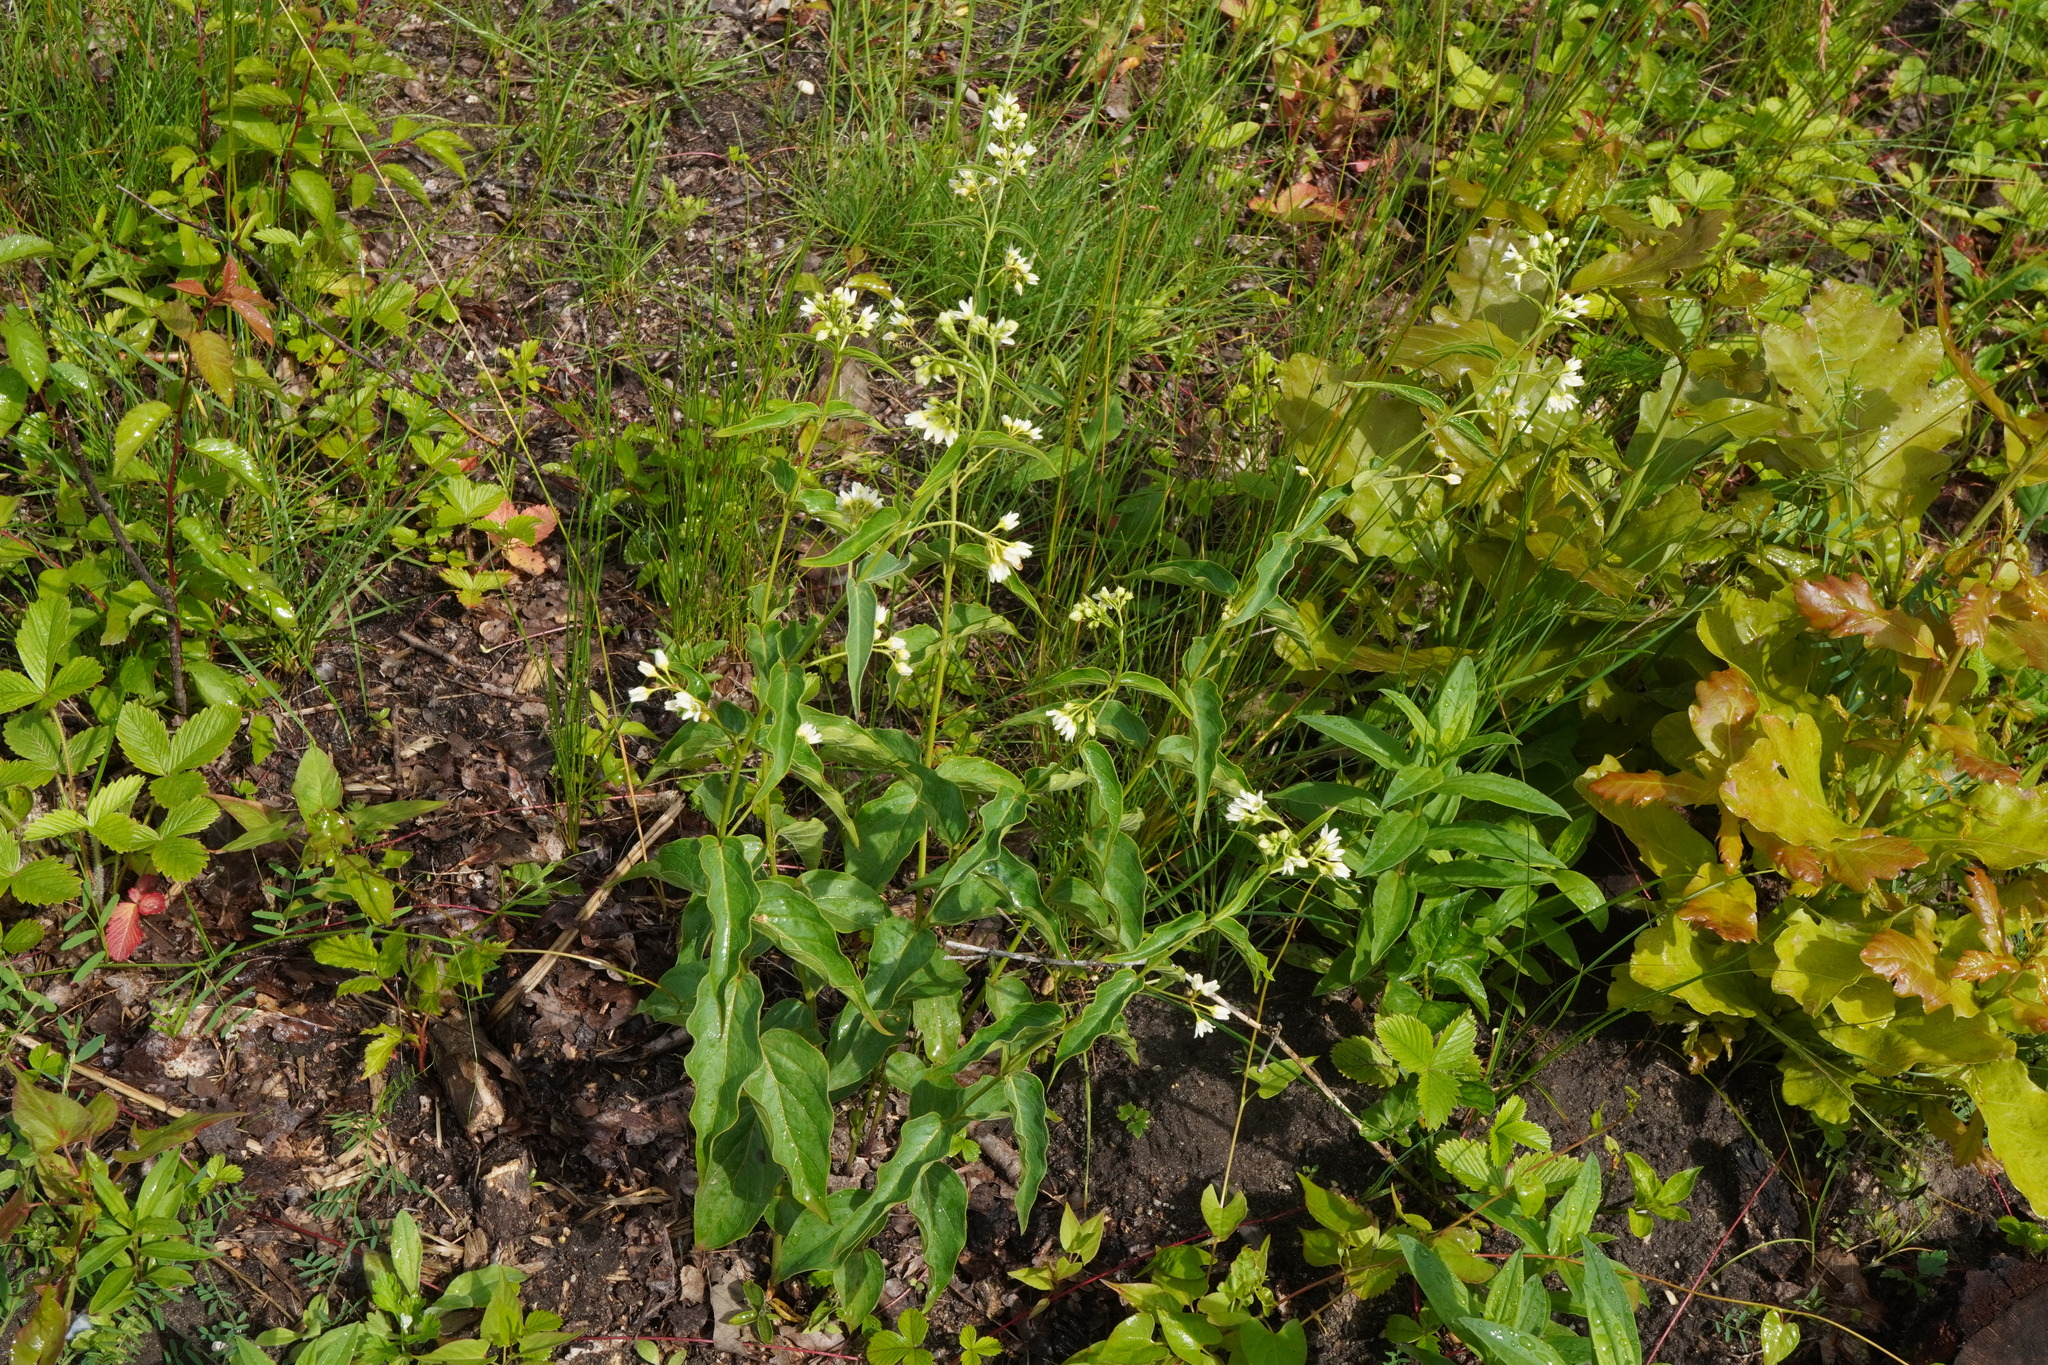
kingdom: Plantae
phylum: Tracheophyta
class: Magnoliopsida
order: Gentianales
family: Apocynaceae
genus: Vincetoxicum
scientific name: Vincetoxicum hirundinaria
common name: White swallowwort
